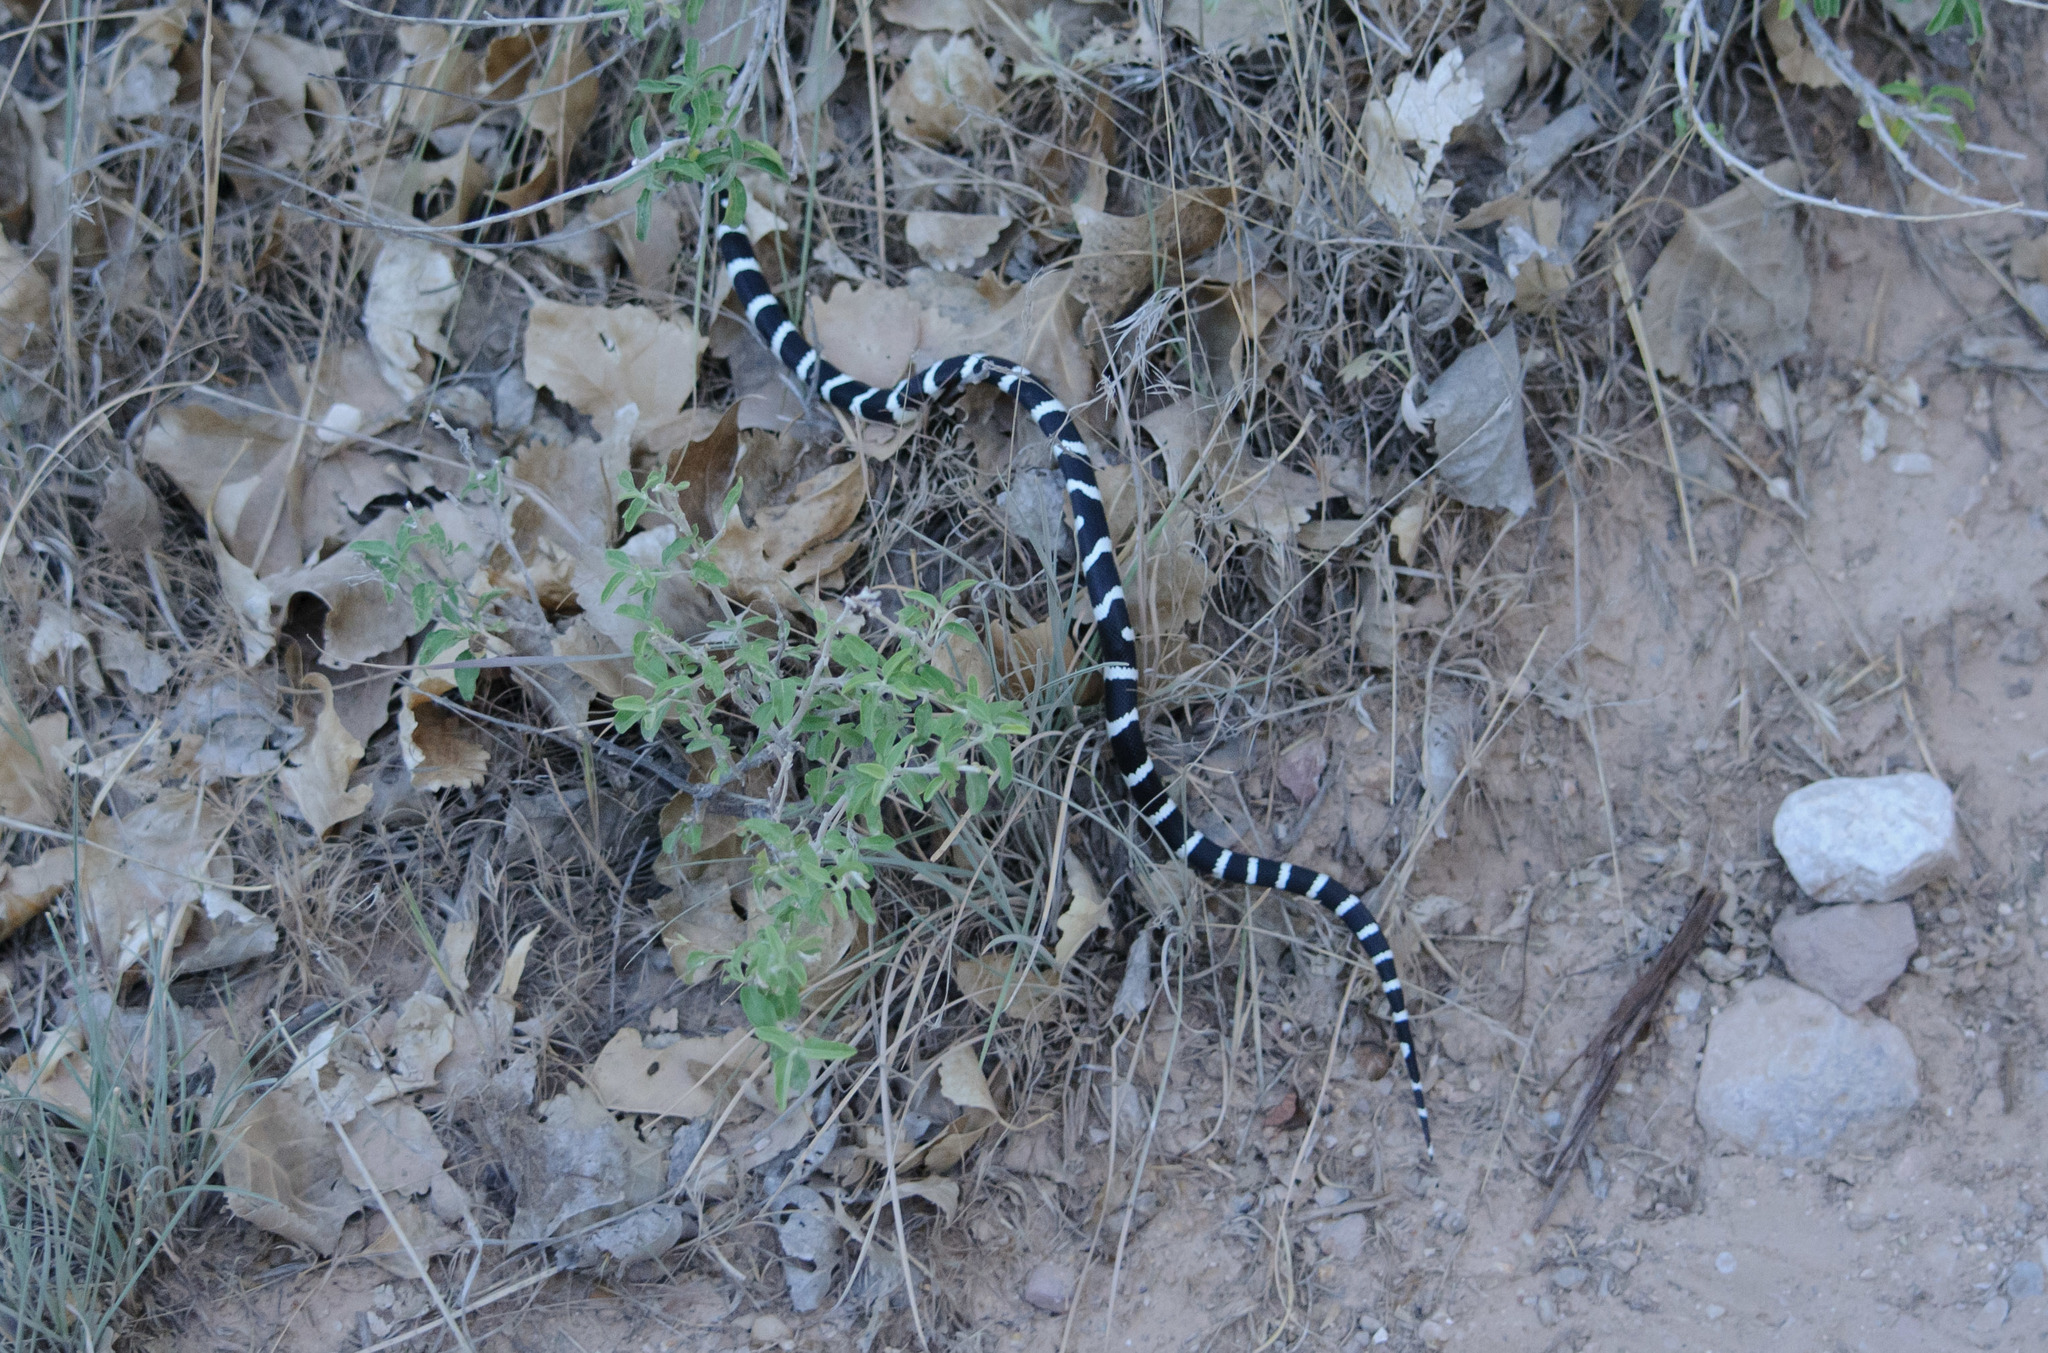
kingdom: Animalia
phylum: Chordata
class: Squamata
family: Colubridae
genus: Lampropeltis
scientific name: Lampropeltis californiae
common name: California kingsnake
